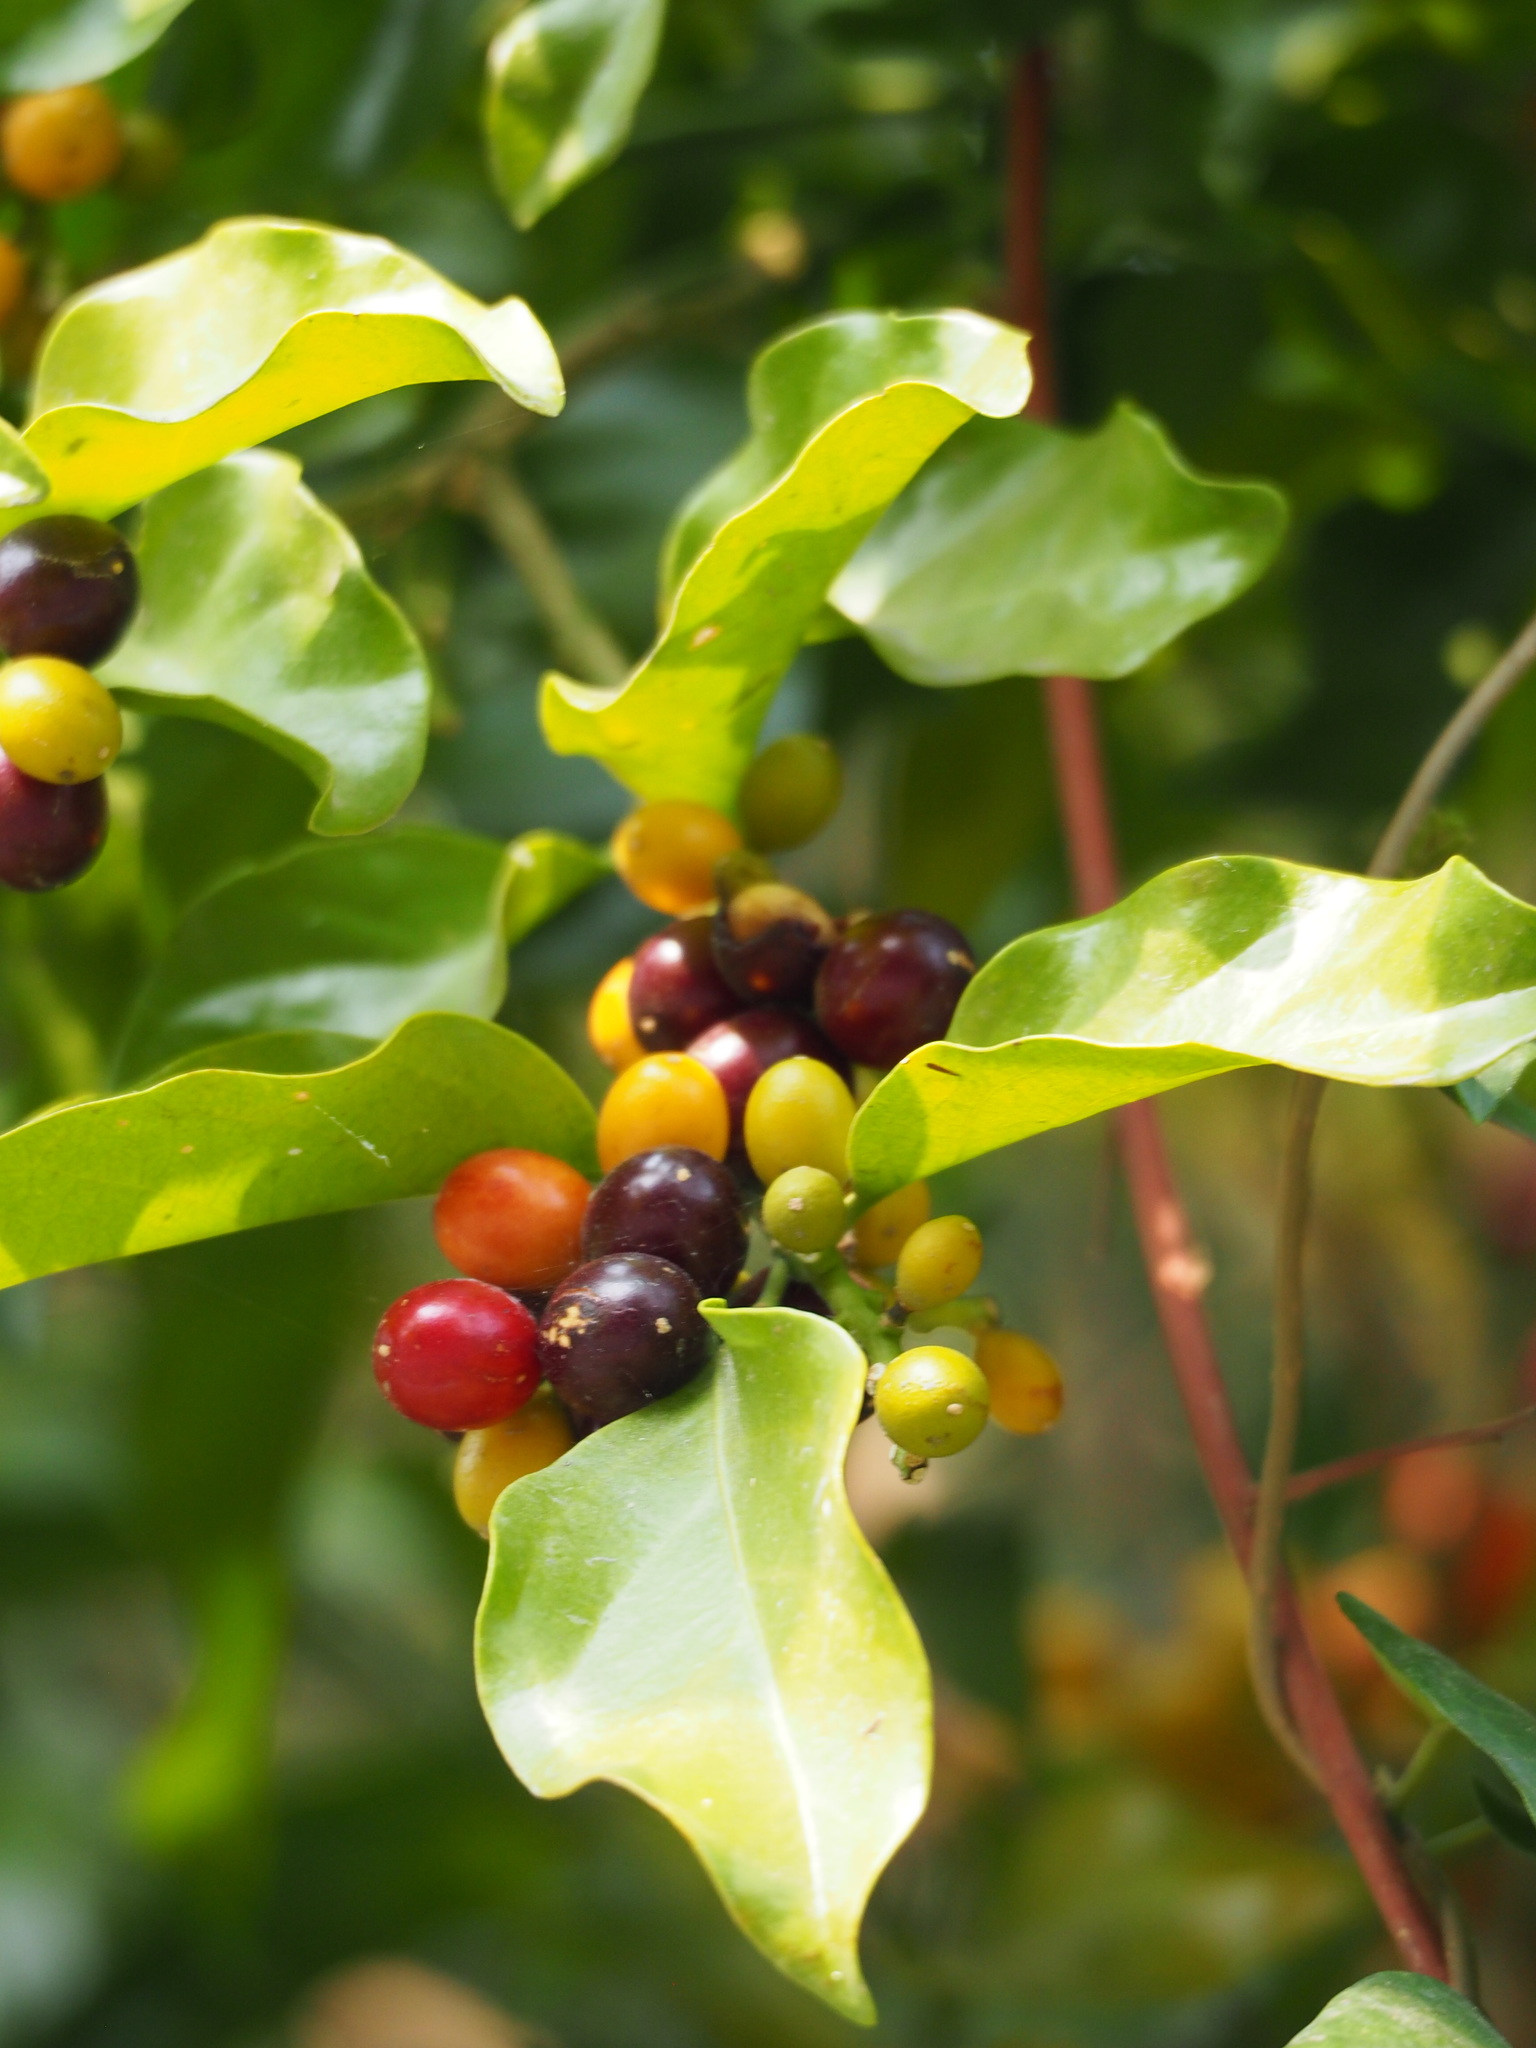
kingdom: Plantae
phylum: Tracheophyta
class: Magnoliopsida
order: Santalales
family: Opiliaceae
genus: Champereia
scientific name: Champereia manillana
